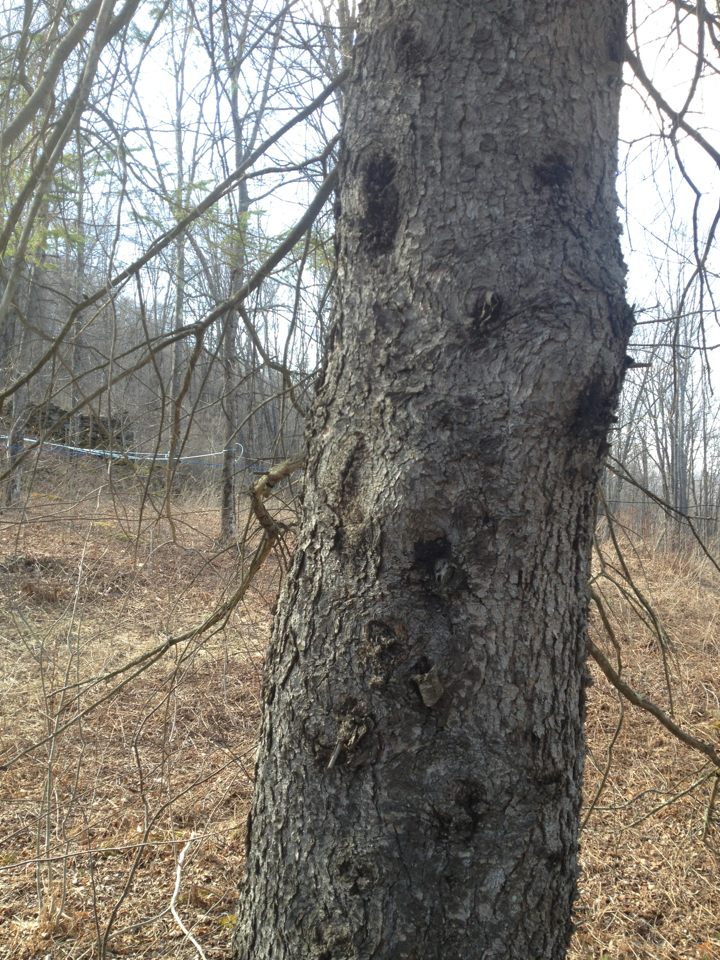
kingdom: Plantae
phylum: Tracheophyta
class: Pinopsida
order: Pinales
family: Pinaceae
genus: Picea
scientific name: Picea rubens
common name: Red spruce
